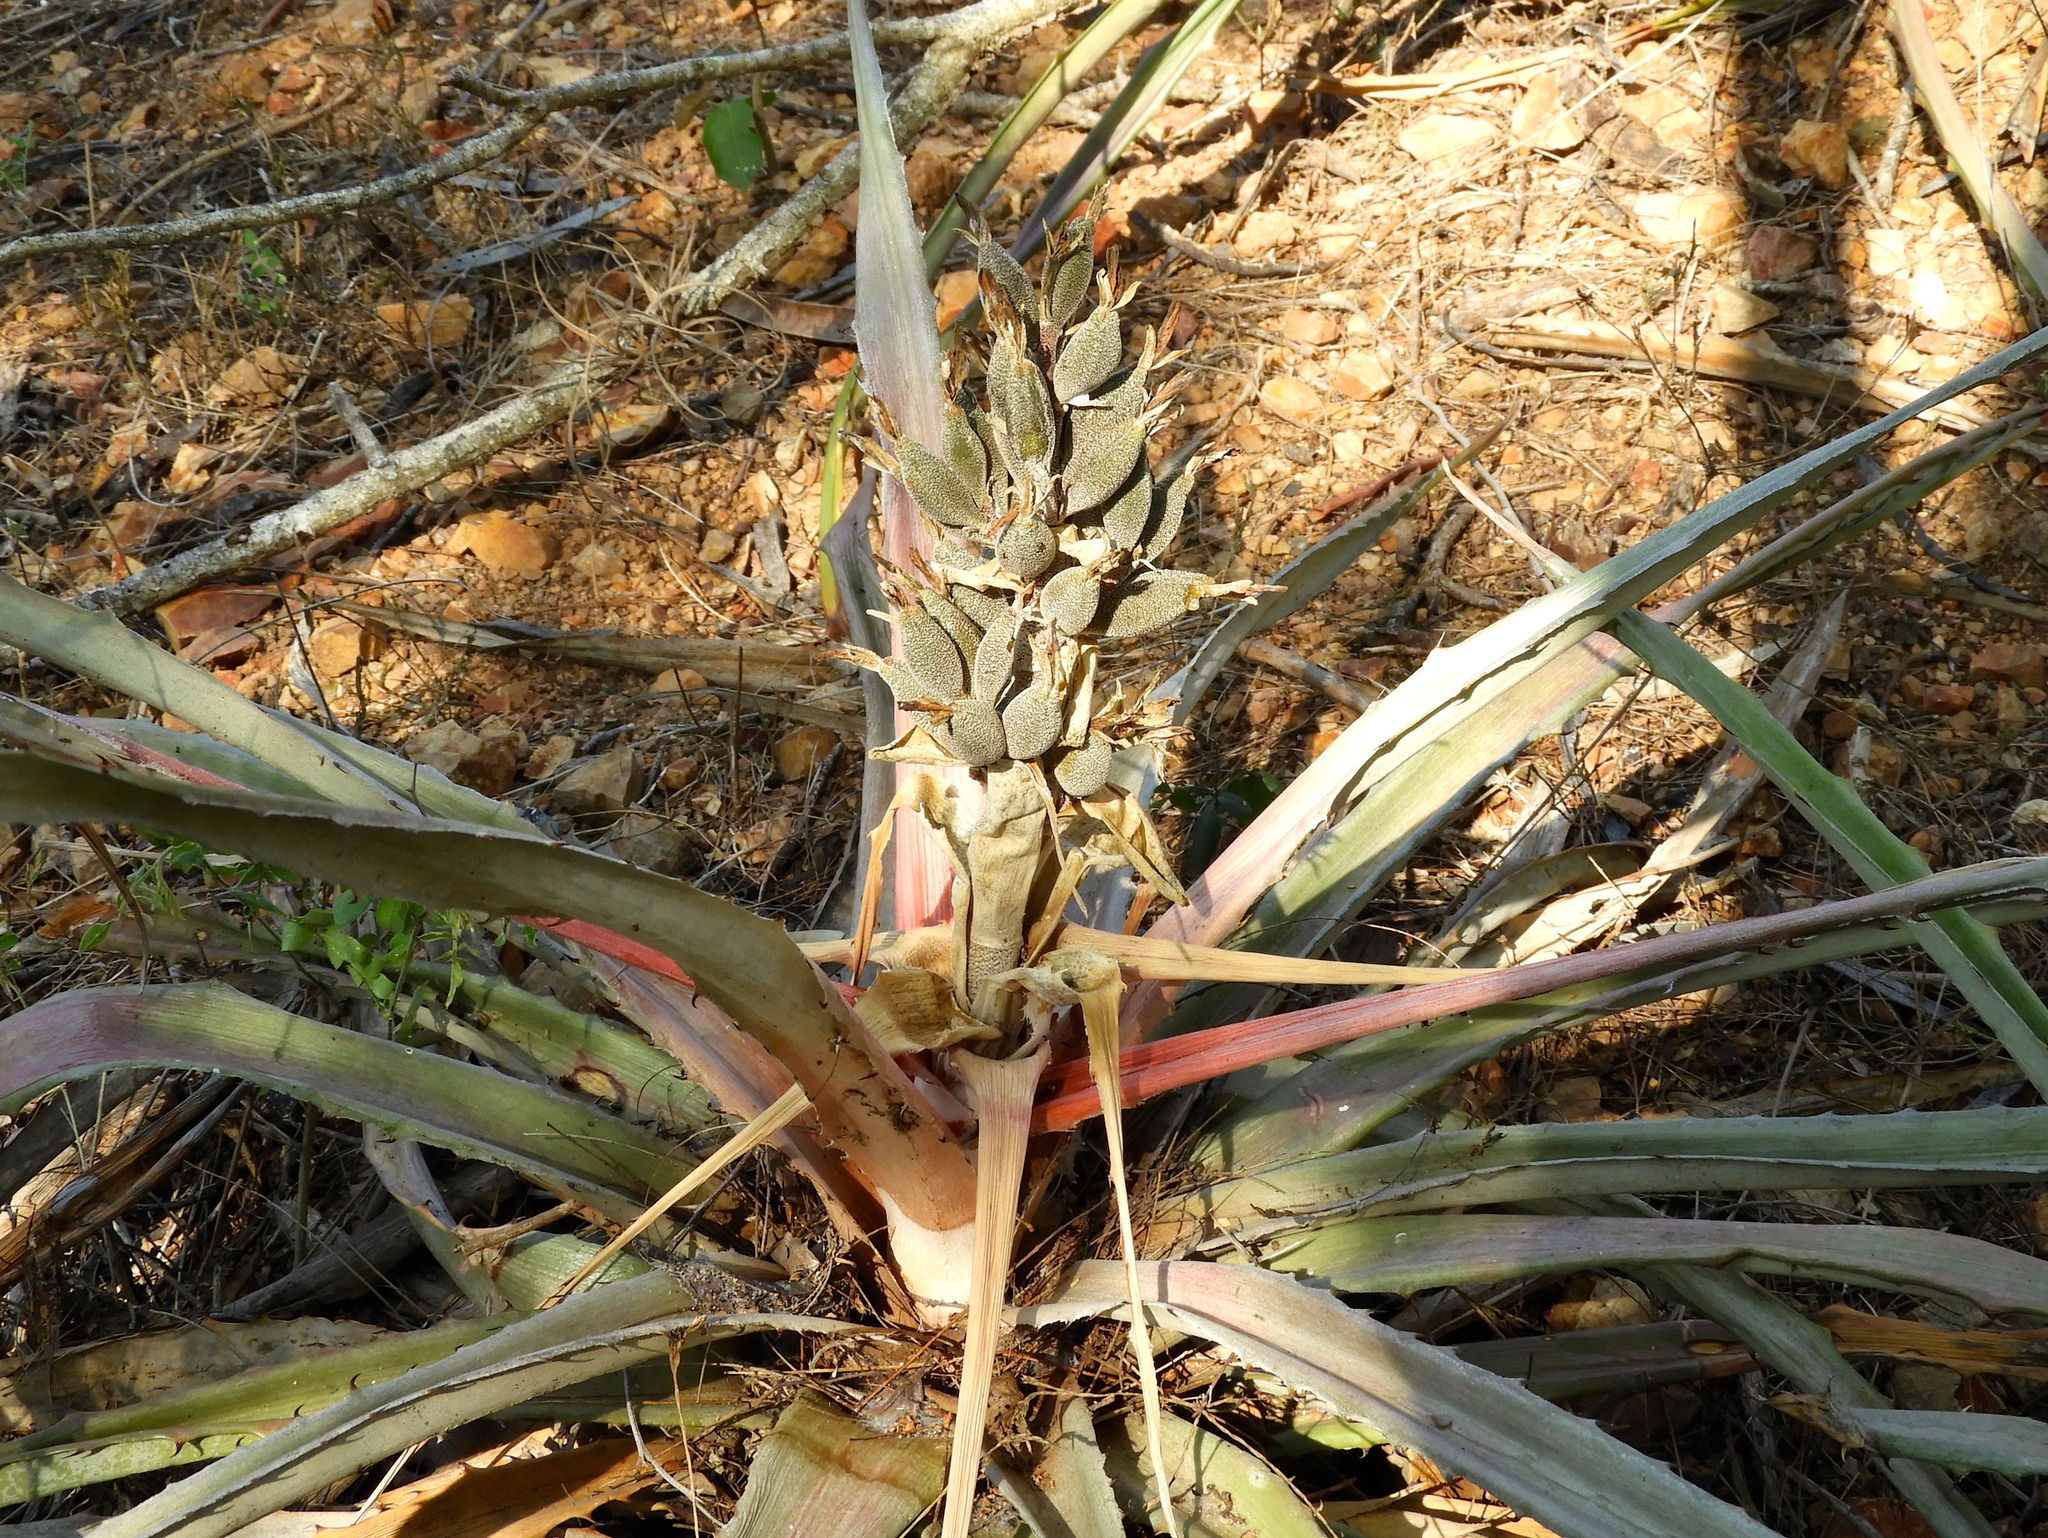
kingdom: Plantae
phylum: Tracheophyta
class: Liliopsida
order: Poales
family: Bromeliaceae
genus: Bromelia
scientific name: Bromelia pinguin
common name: Pinguin
